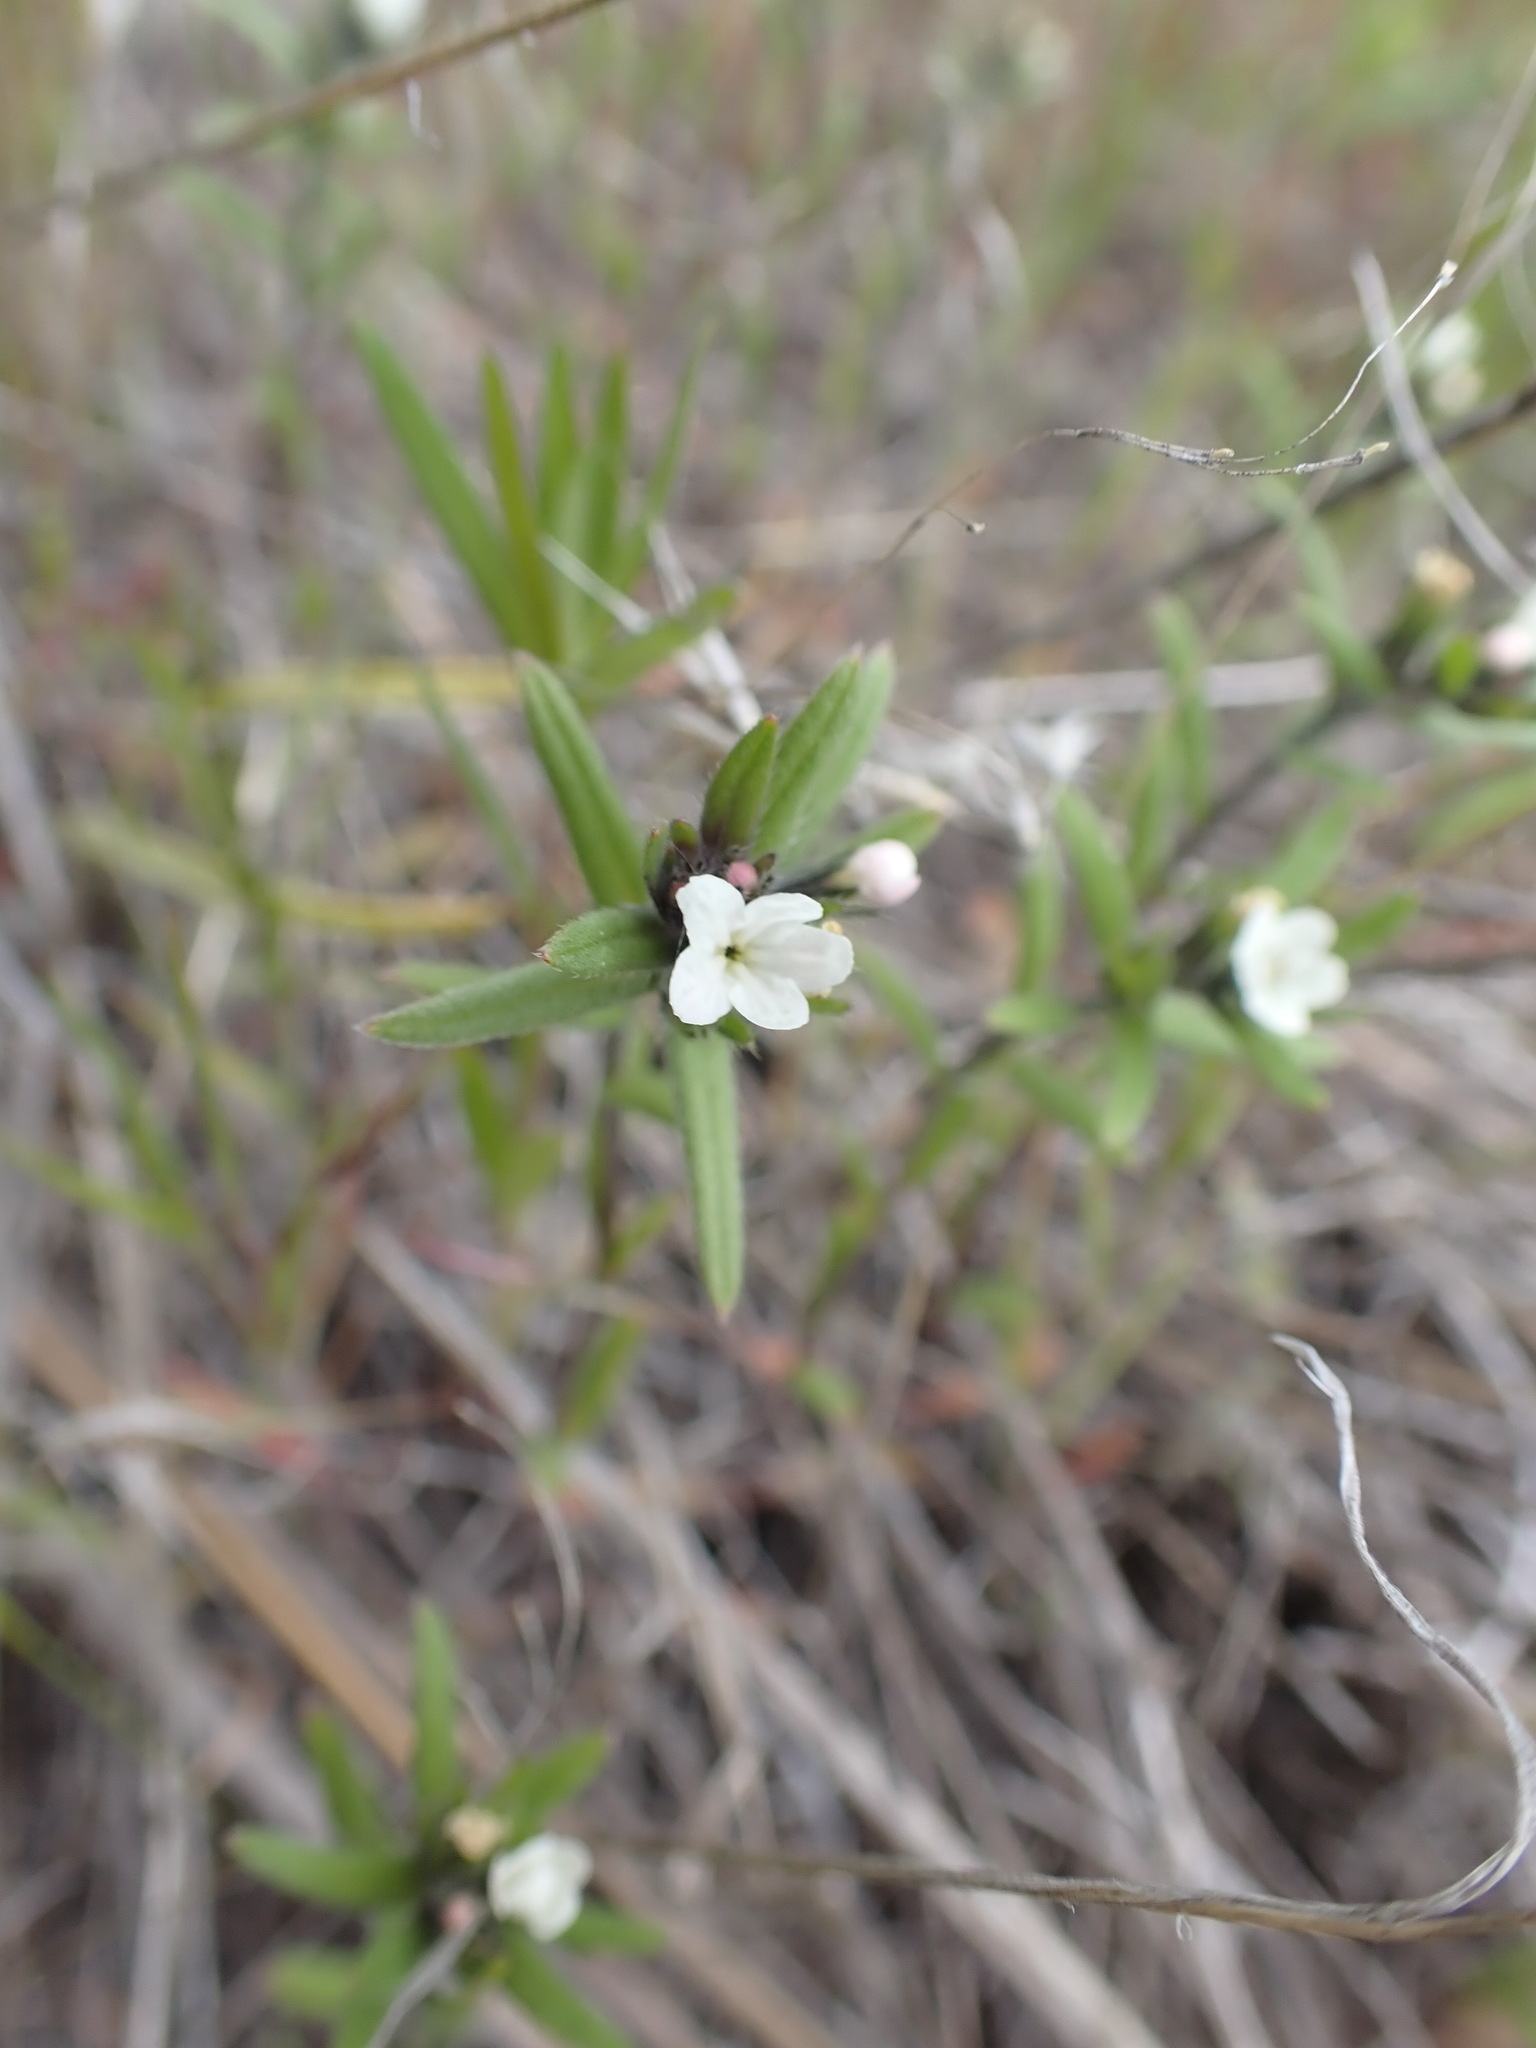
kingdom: Plantae
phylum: Tracheophyta
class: Magnoliopsida
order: Boraginales
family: Boraginaceae
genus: Buglossoides
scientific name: Buglossoides arvensis
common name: Corn gromwell
